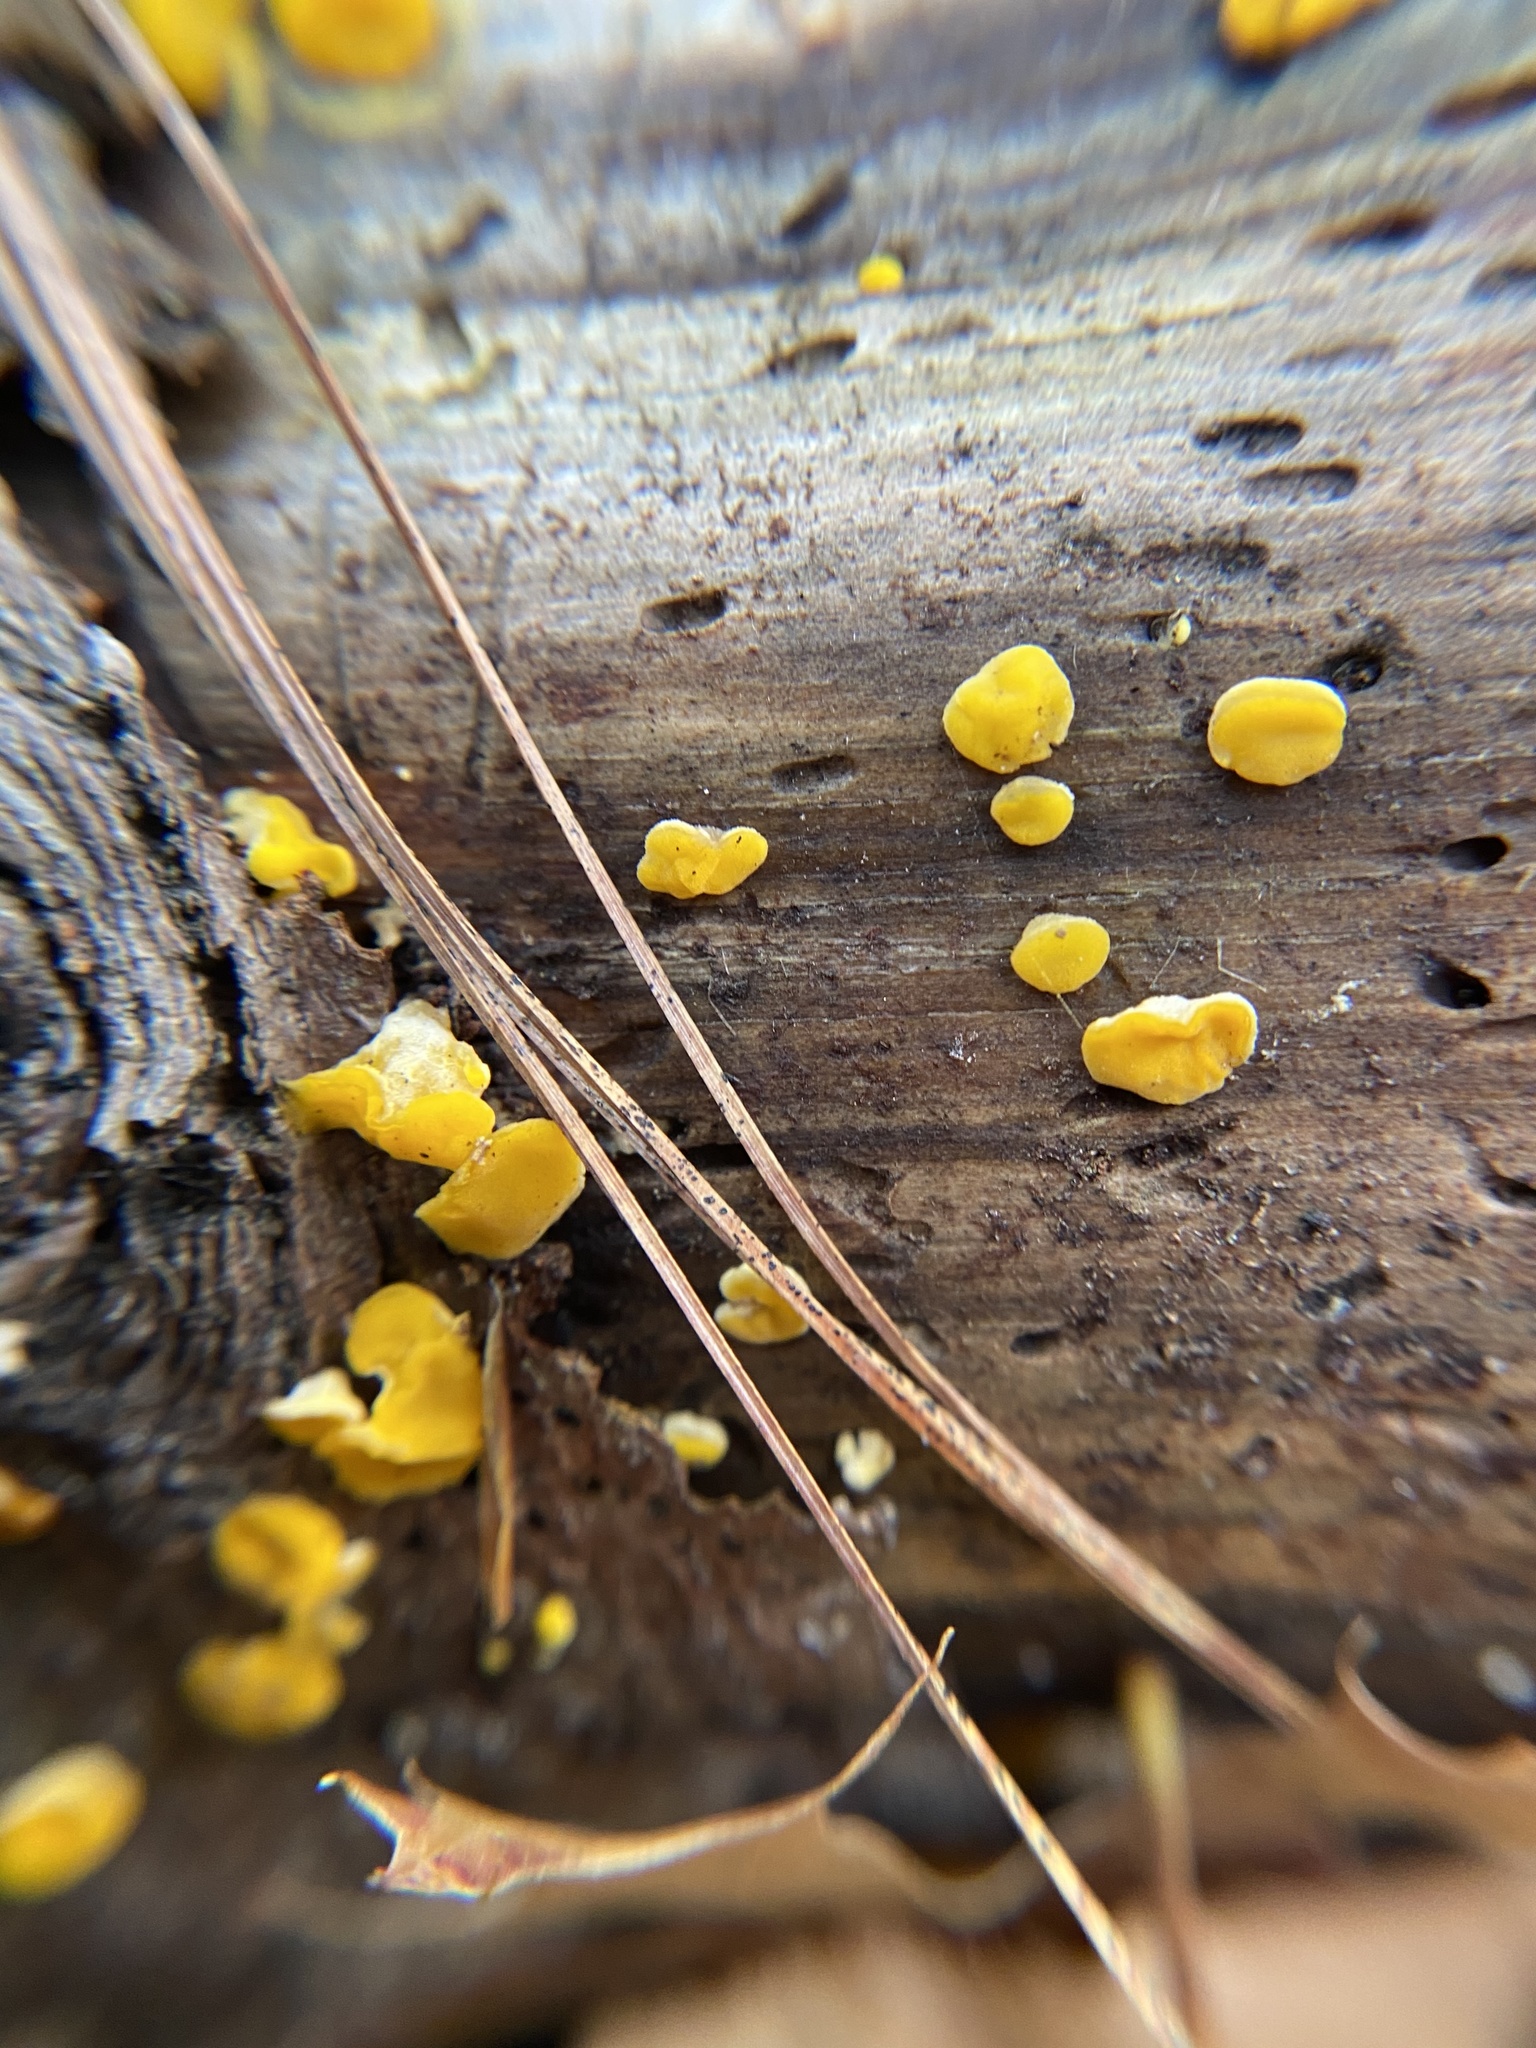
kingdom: Fungi
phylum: Basidiomycota
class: Dacrymycetes
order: Dacrymycetales
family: Dacrymycetaceae
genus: Ditiola
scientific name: Ditiola peziziformis
